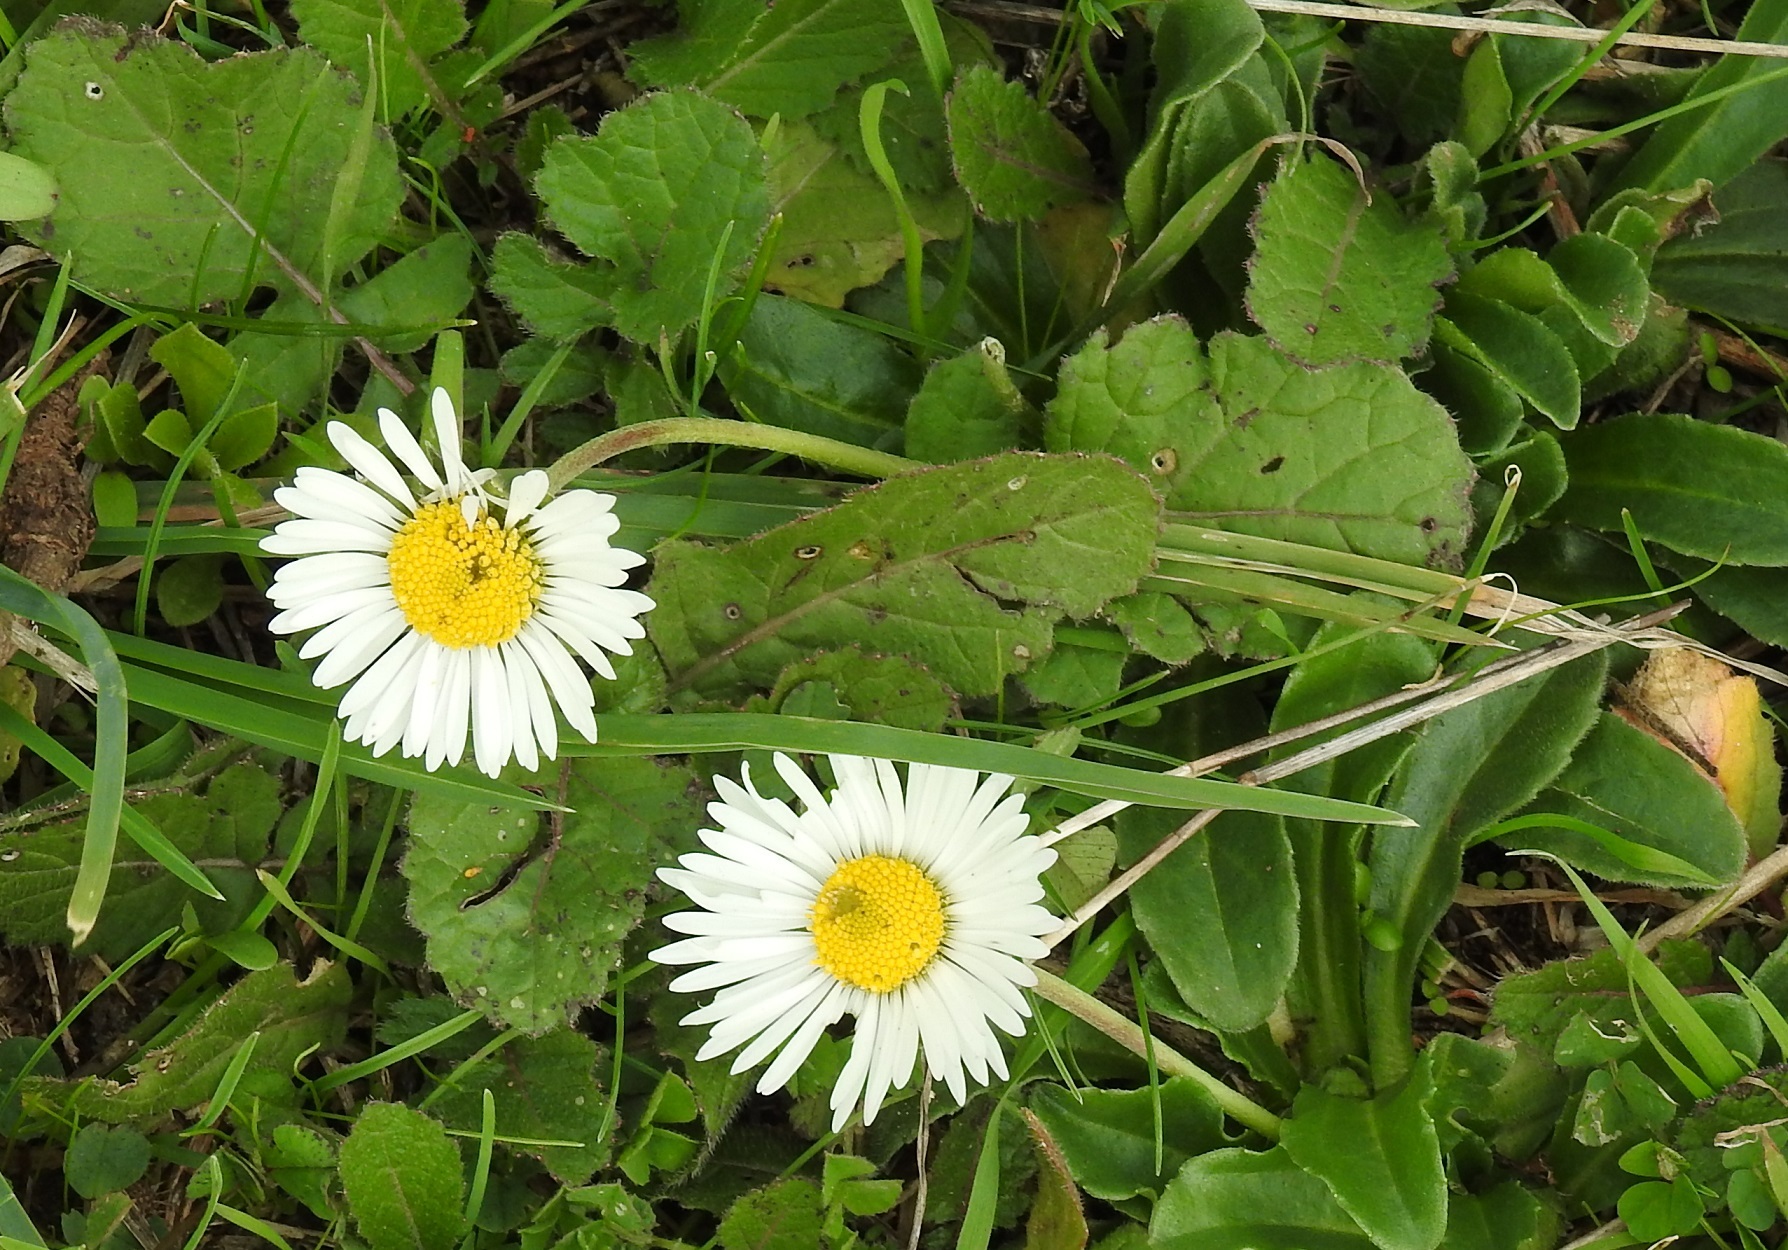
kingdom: Plantae
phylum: Tracheophyta
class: Magnoliopsida
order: Asterales
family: Asteraceae
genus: Leucanthemum
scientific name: Leucanthemum vulgare
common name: Oxeye daisy
